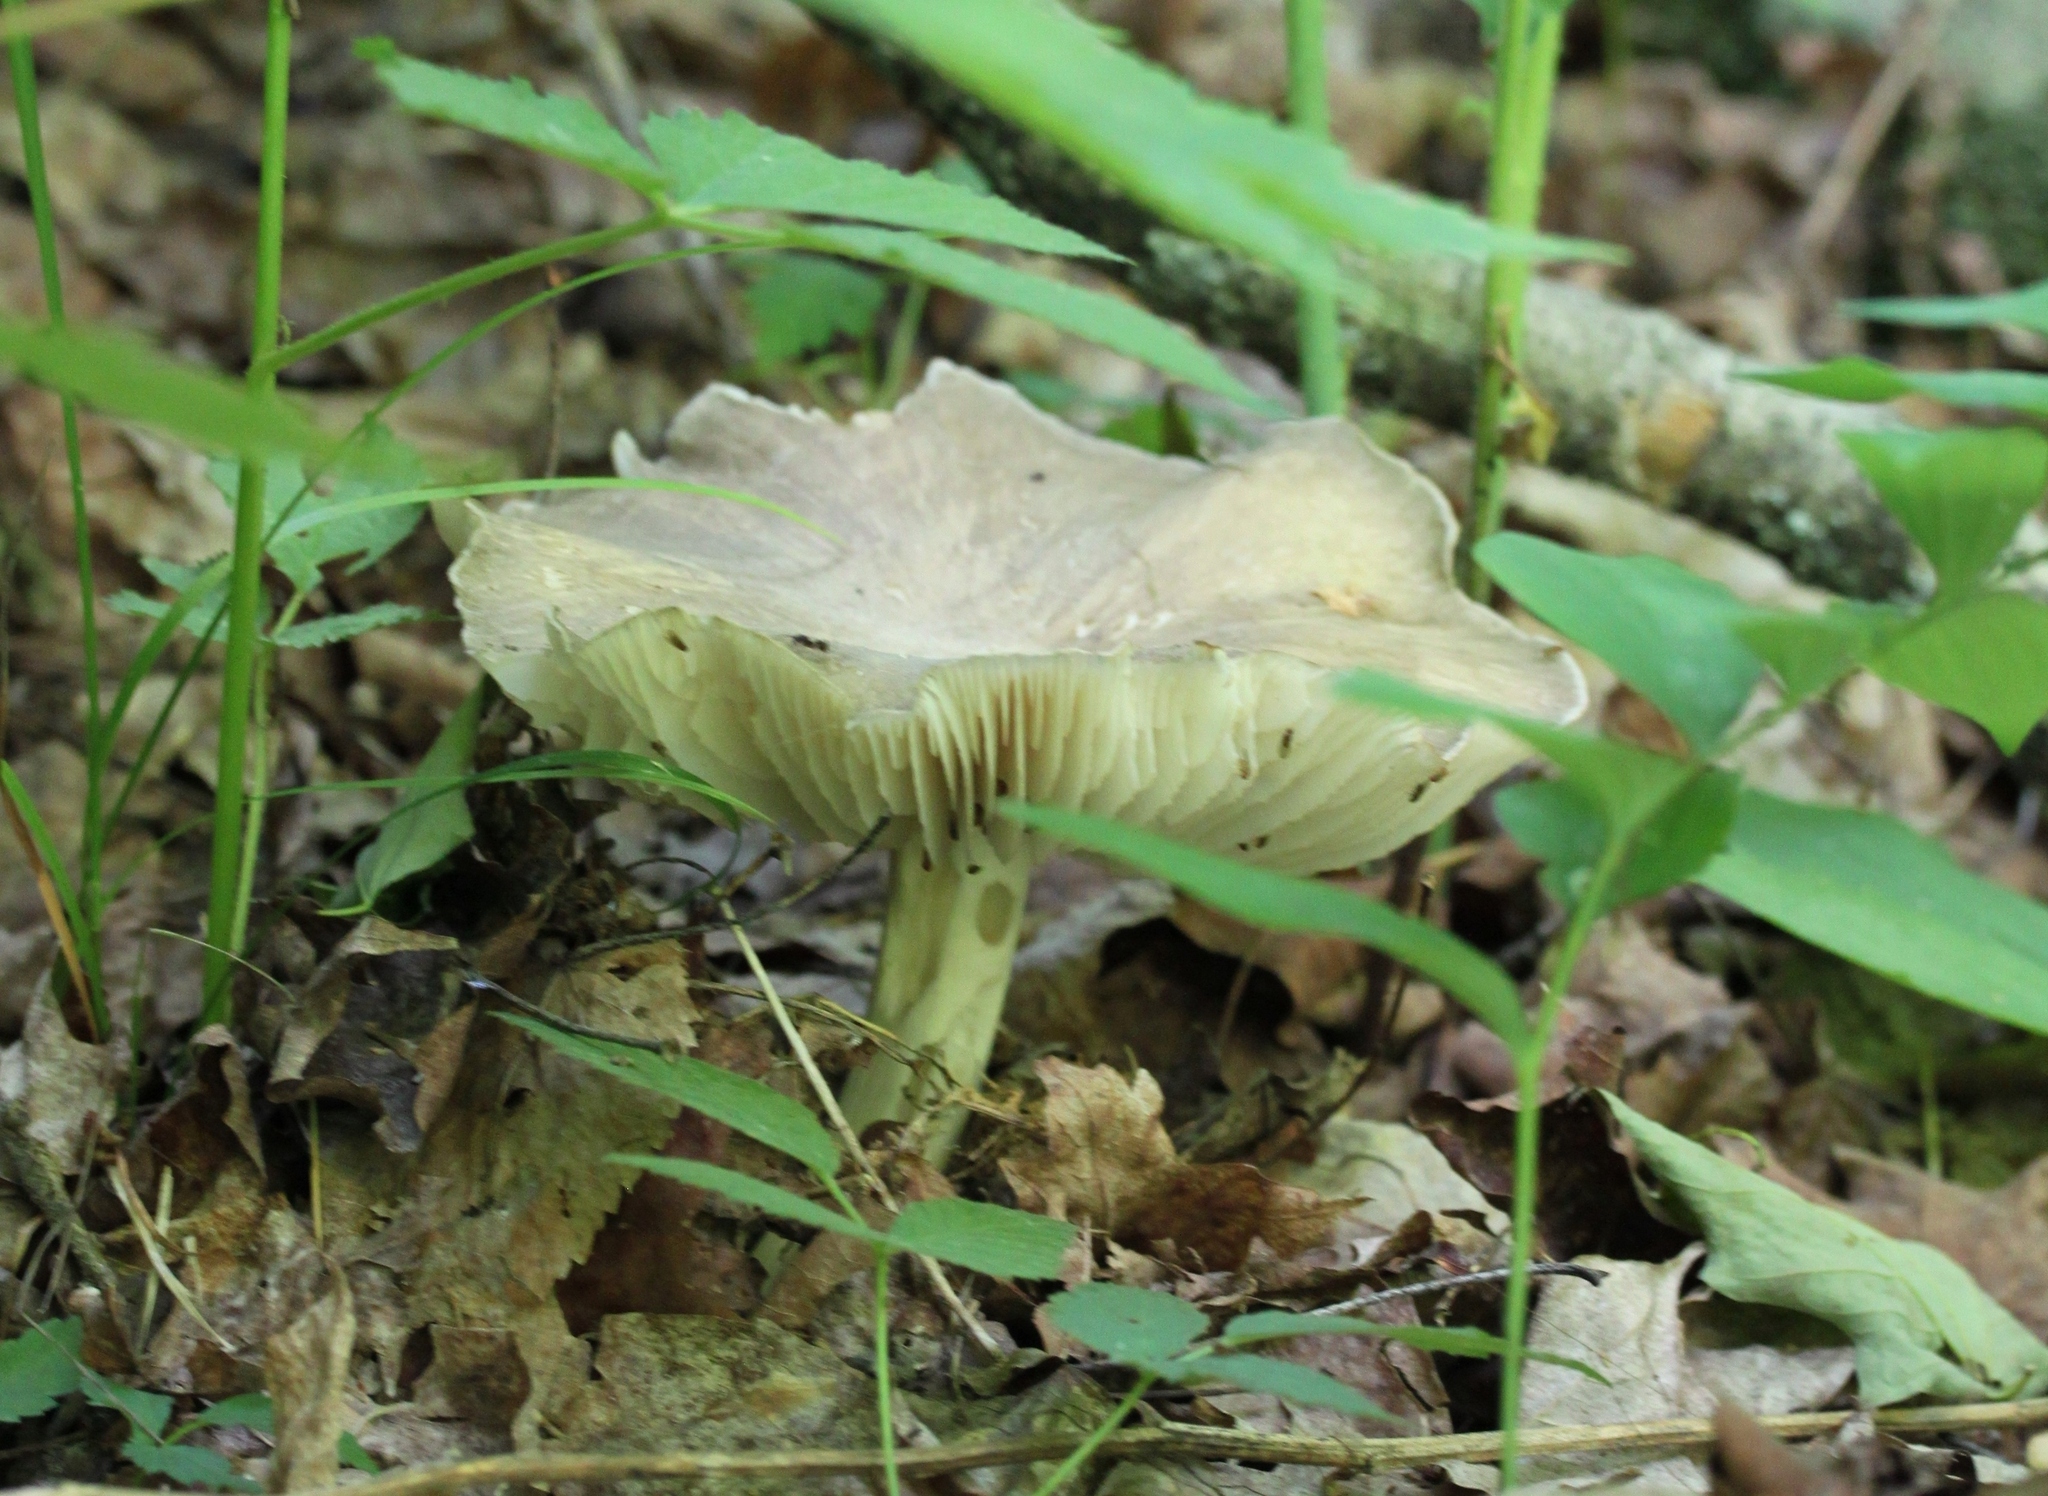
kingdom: Fungi
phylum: Basidiomycota
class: Agaricomycetes
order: Agaricales
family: Tricholomataceae
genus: Megacollybia
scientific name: Megacollybia rodmanii
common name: Eastern american platterful mushroom
